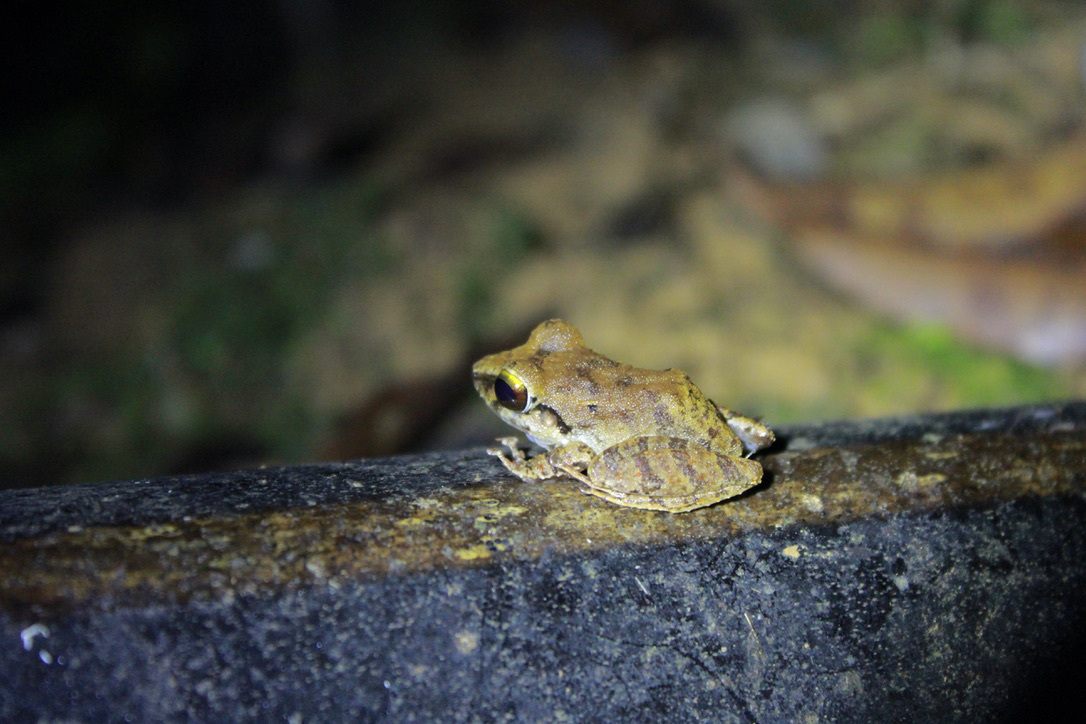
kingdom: Animalia
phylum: Chordata
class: Amphibia
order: Anura
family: Craugastoridae
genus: Pristimantis
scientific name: Pristimantis charlottevillensis
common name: Charlotteville leaf-litter frog
